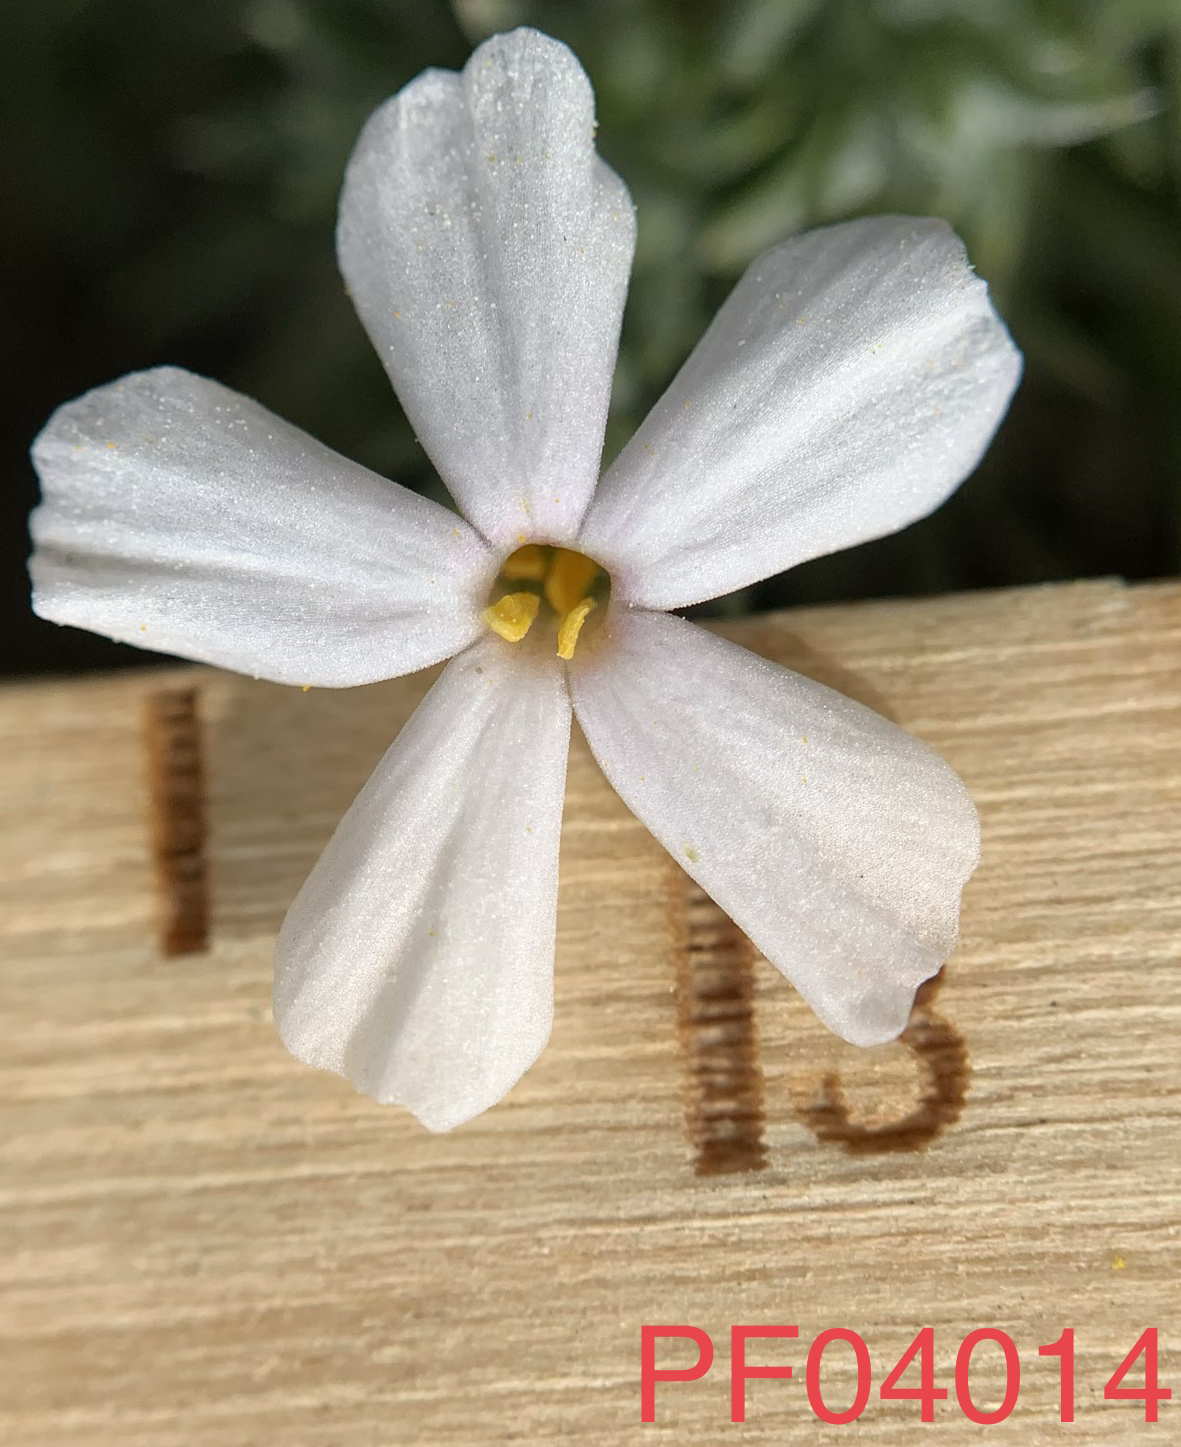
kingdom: Plantae
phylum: Tracheophyta
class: Magnoliopsida
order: Ericales
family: Polemoniaceae
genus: Phlox
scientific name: Phlox hoodii
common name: Moss phlox
